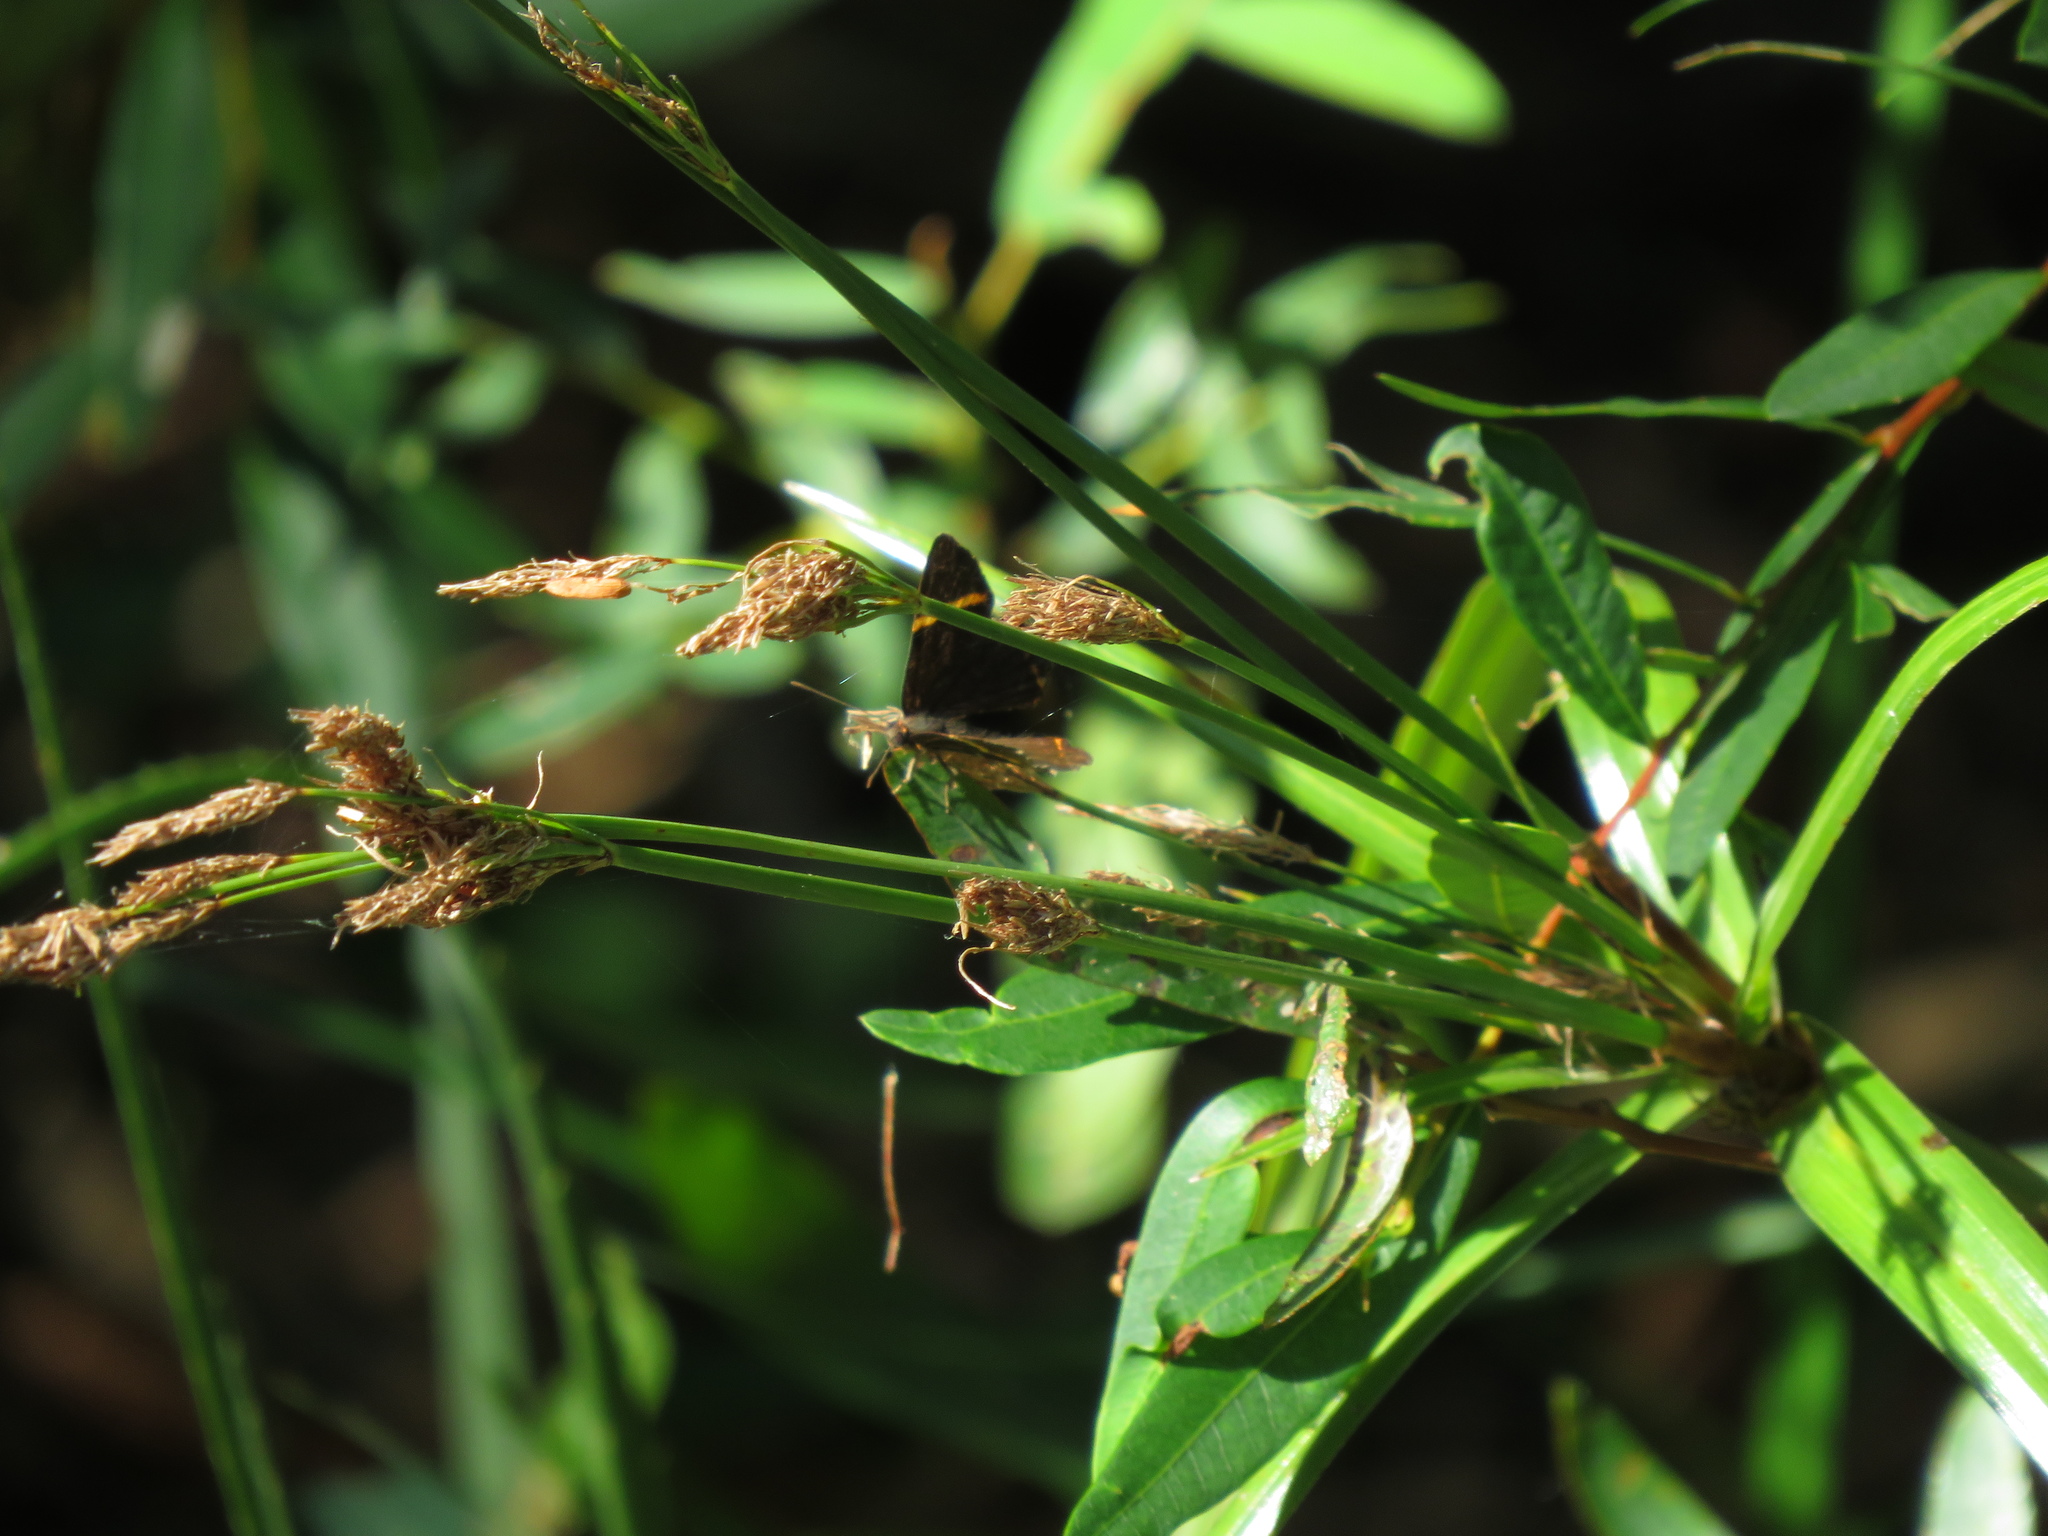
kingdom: Animalia
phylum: Arthropoda
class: Insecta
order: Lepidoptera
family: Riodinidae
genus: Riodina
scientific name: Riodina lysippoides
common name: Little dancer metalmark
